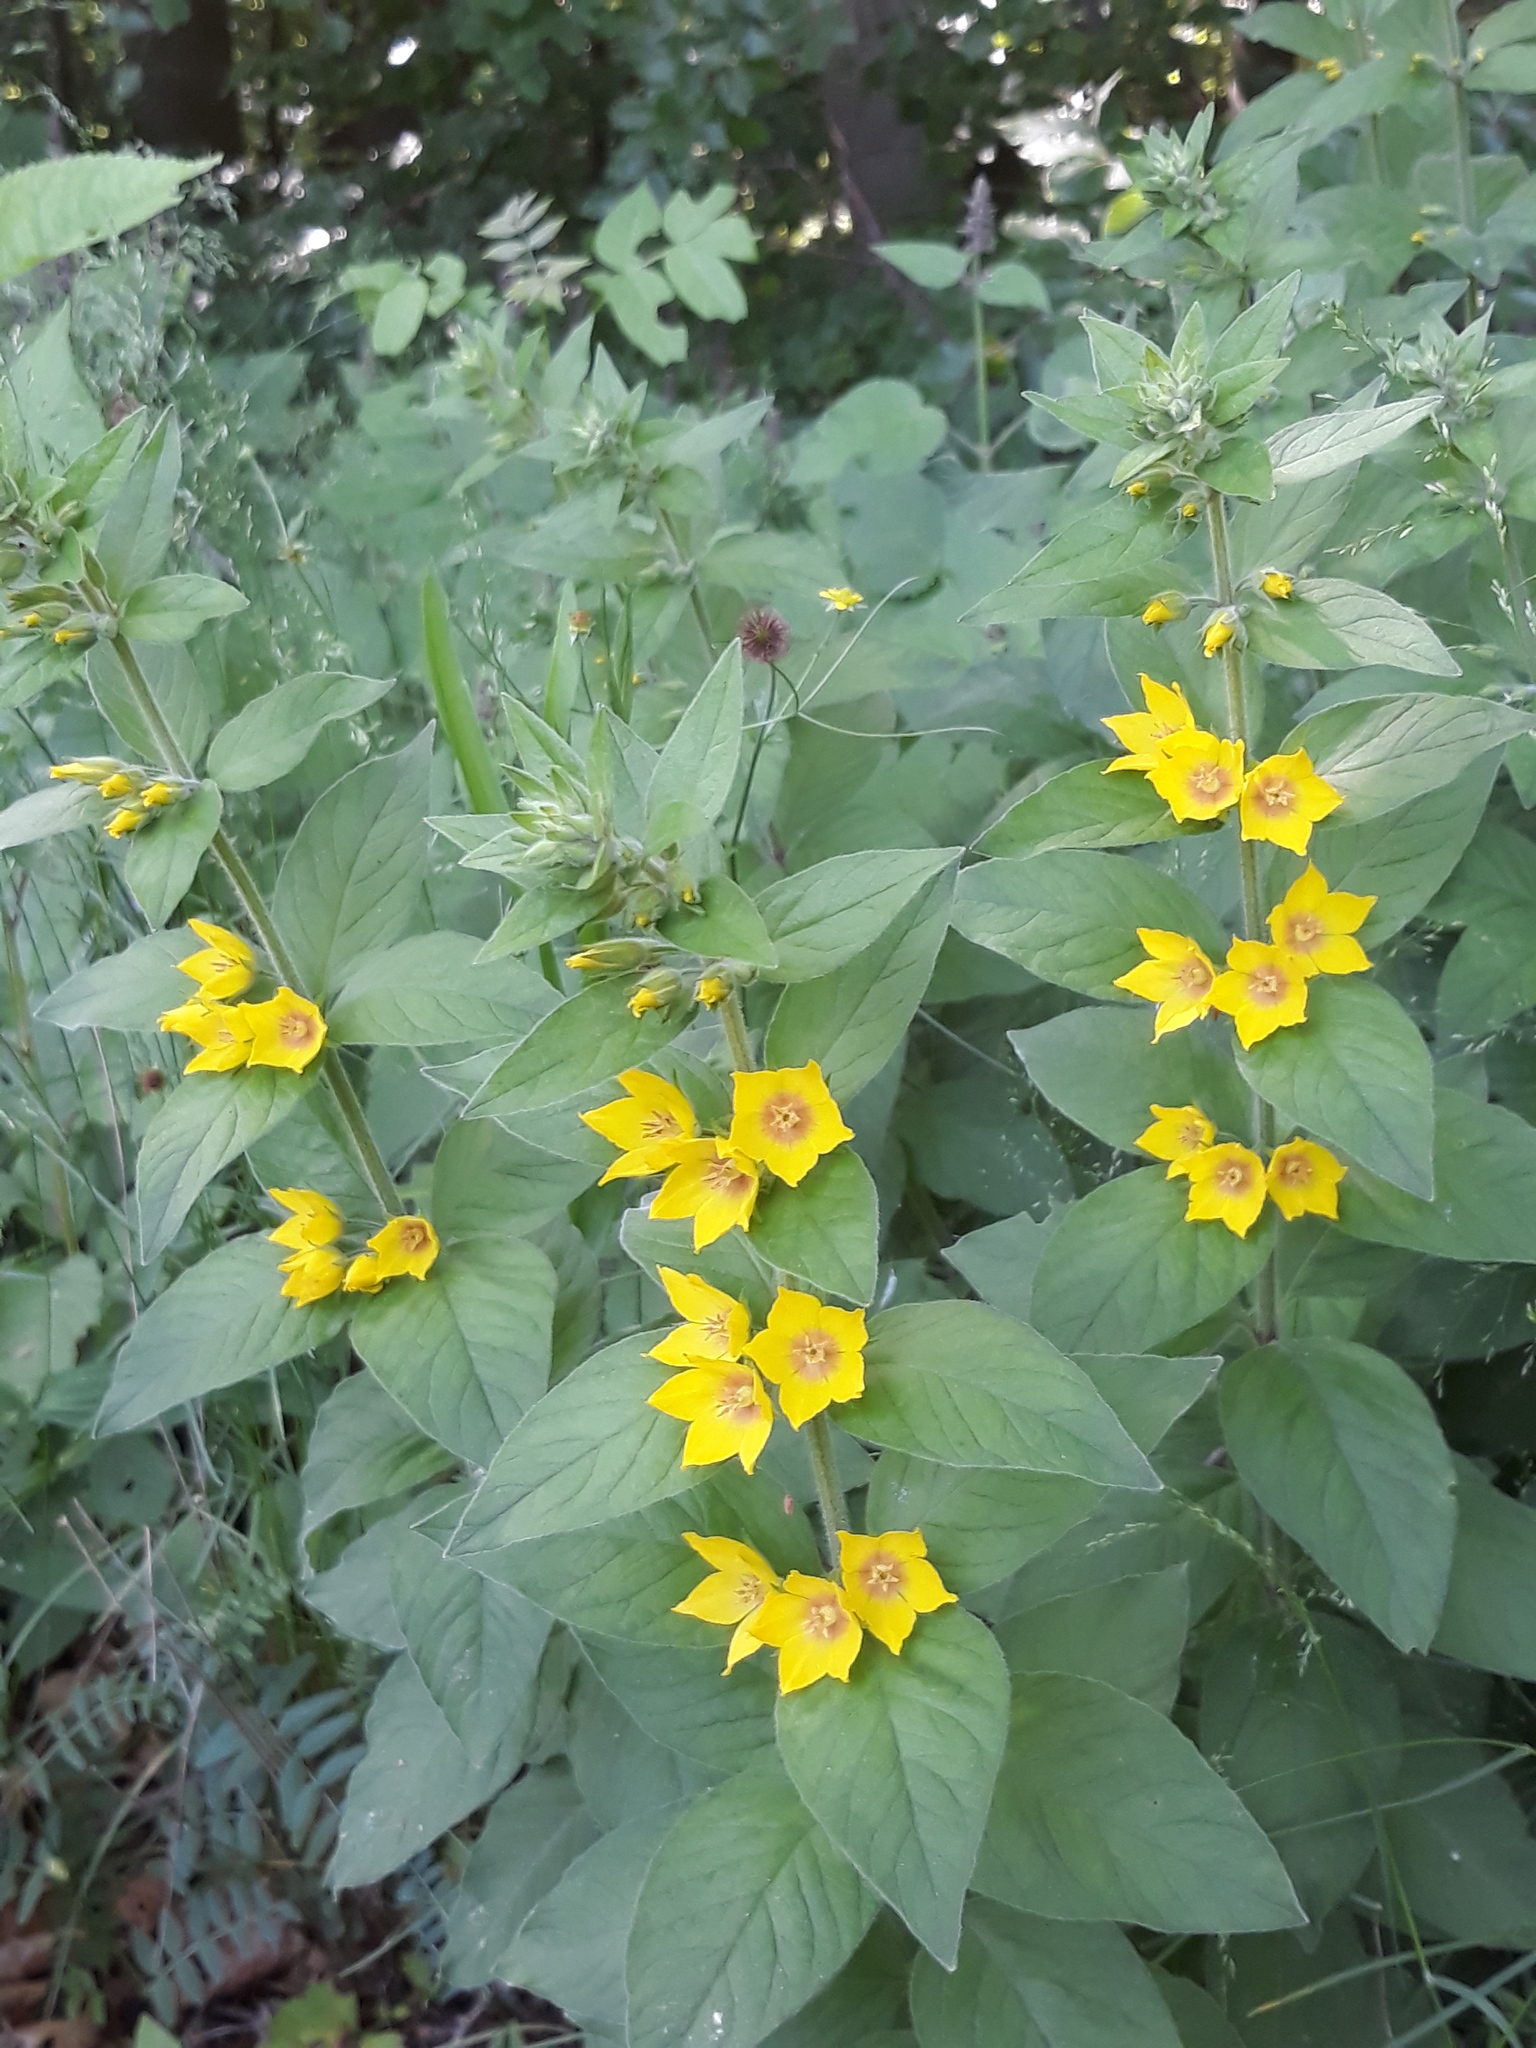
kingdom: Plantae
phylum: Tracheophyta
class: Magnoliopsida
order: Ericales
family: Primulaceae
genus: Lysimachia
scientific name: Lysimachia punctata
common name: Dotted loosestrife
